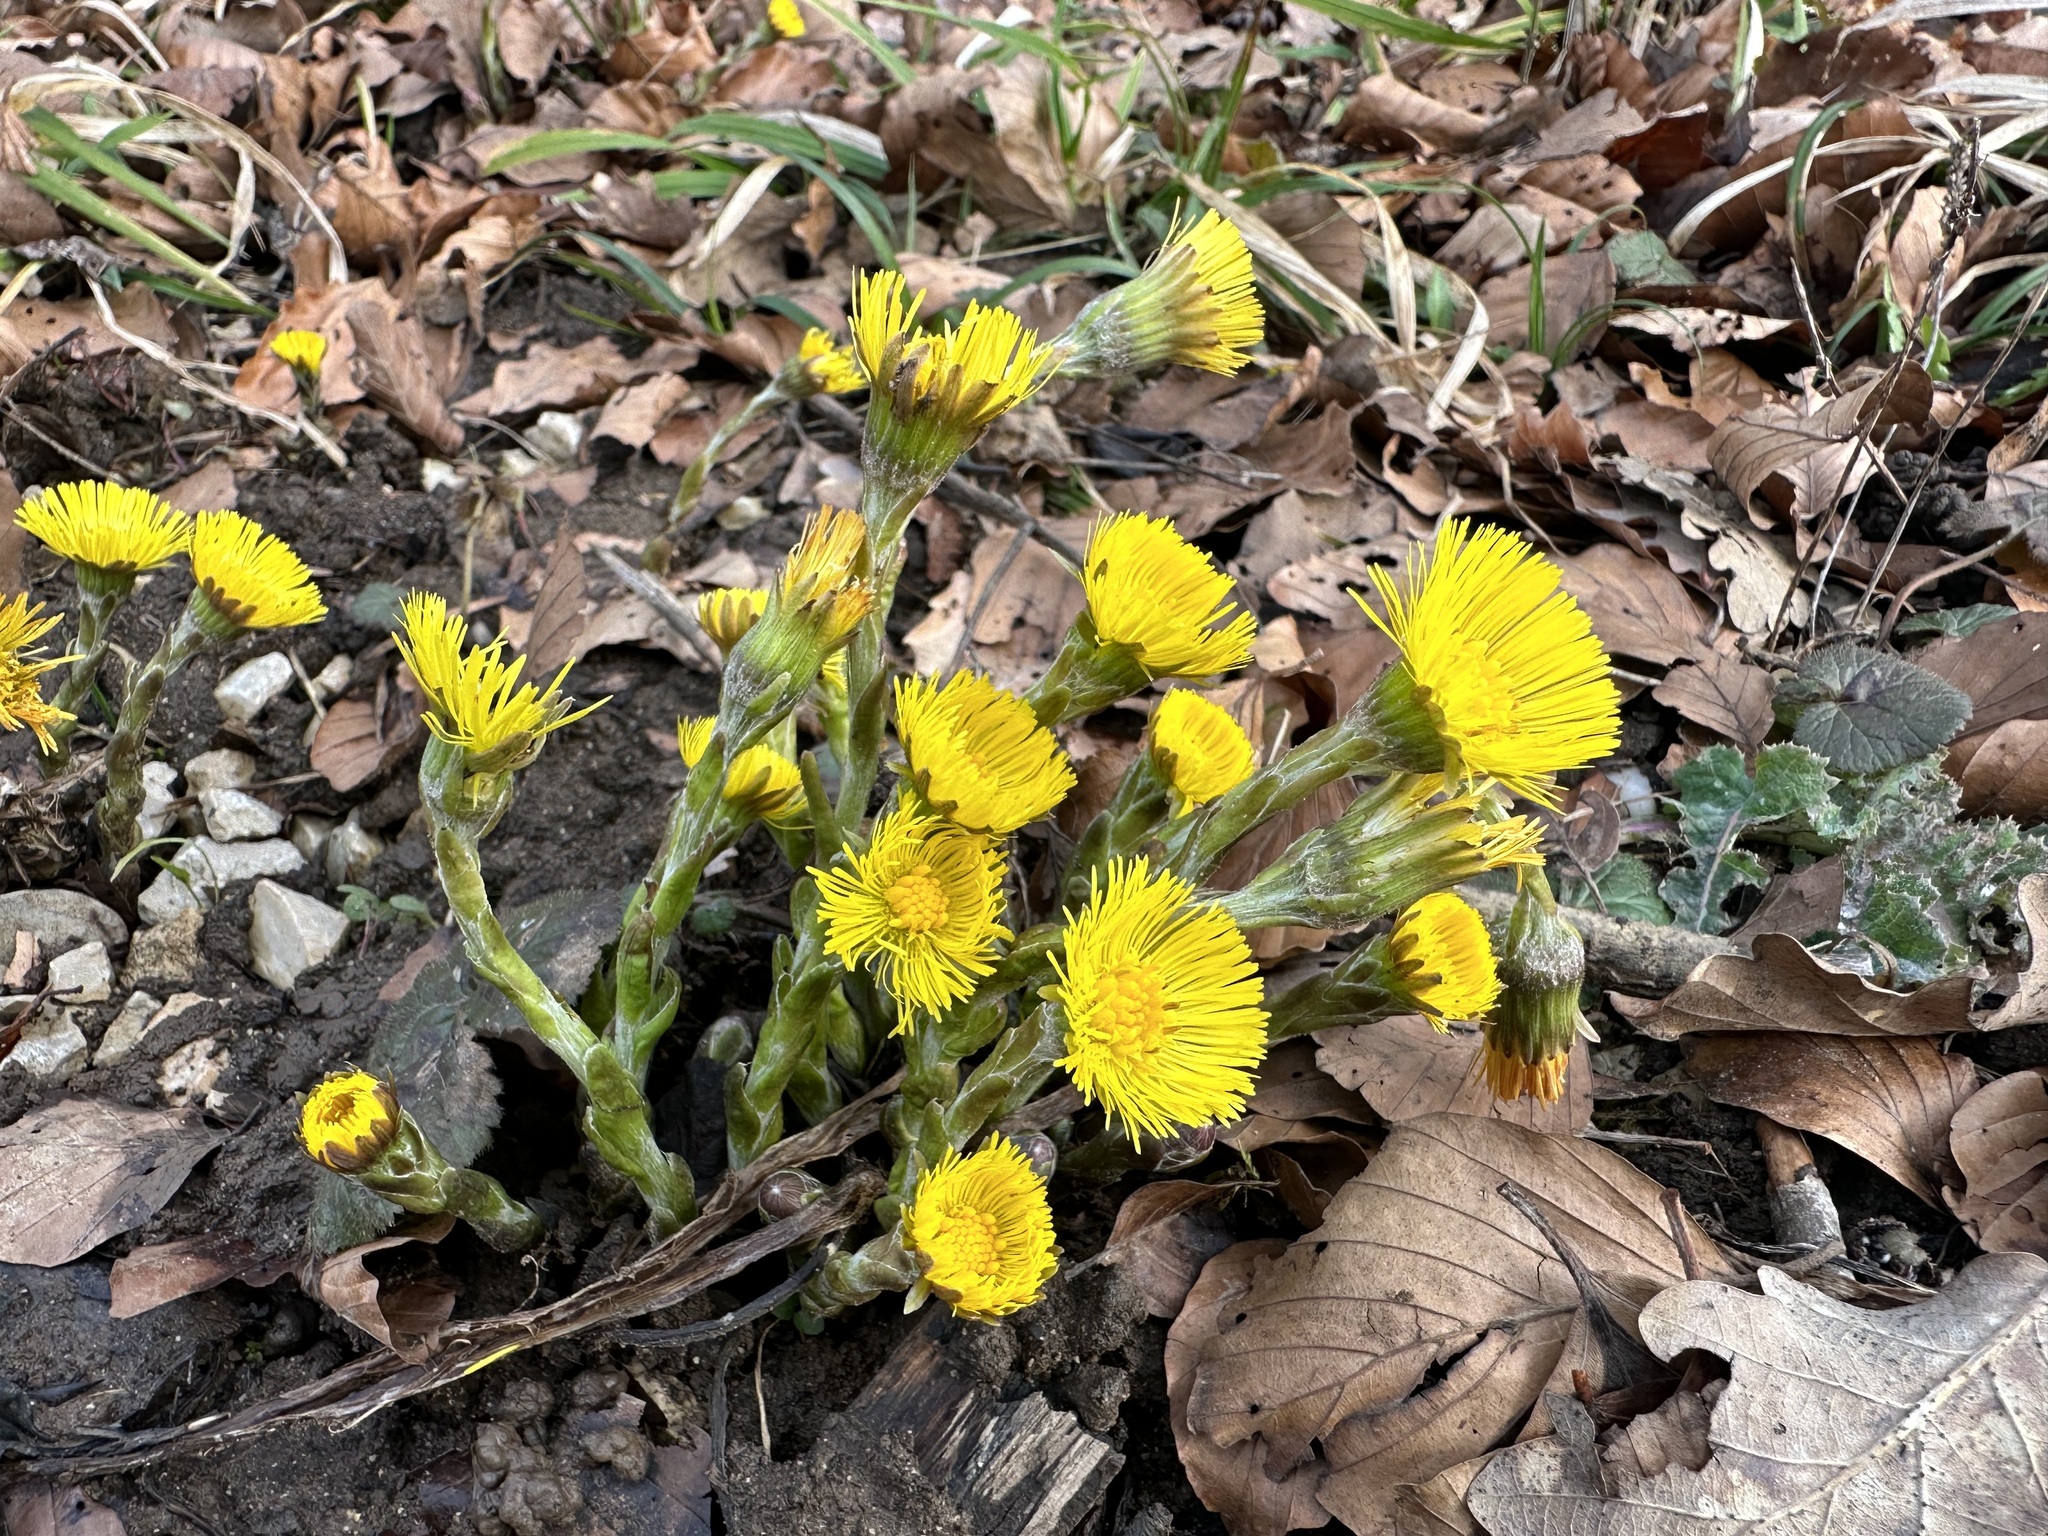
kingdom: Plantae
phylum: Tracheophyta
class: Magnoliopsida
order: Asterales
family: Asteraceae
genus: Tussilago
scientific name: Tussilago farfara
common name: Coltsfoot
